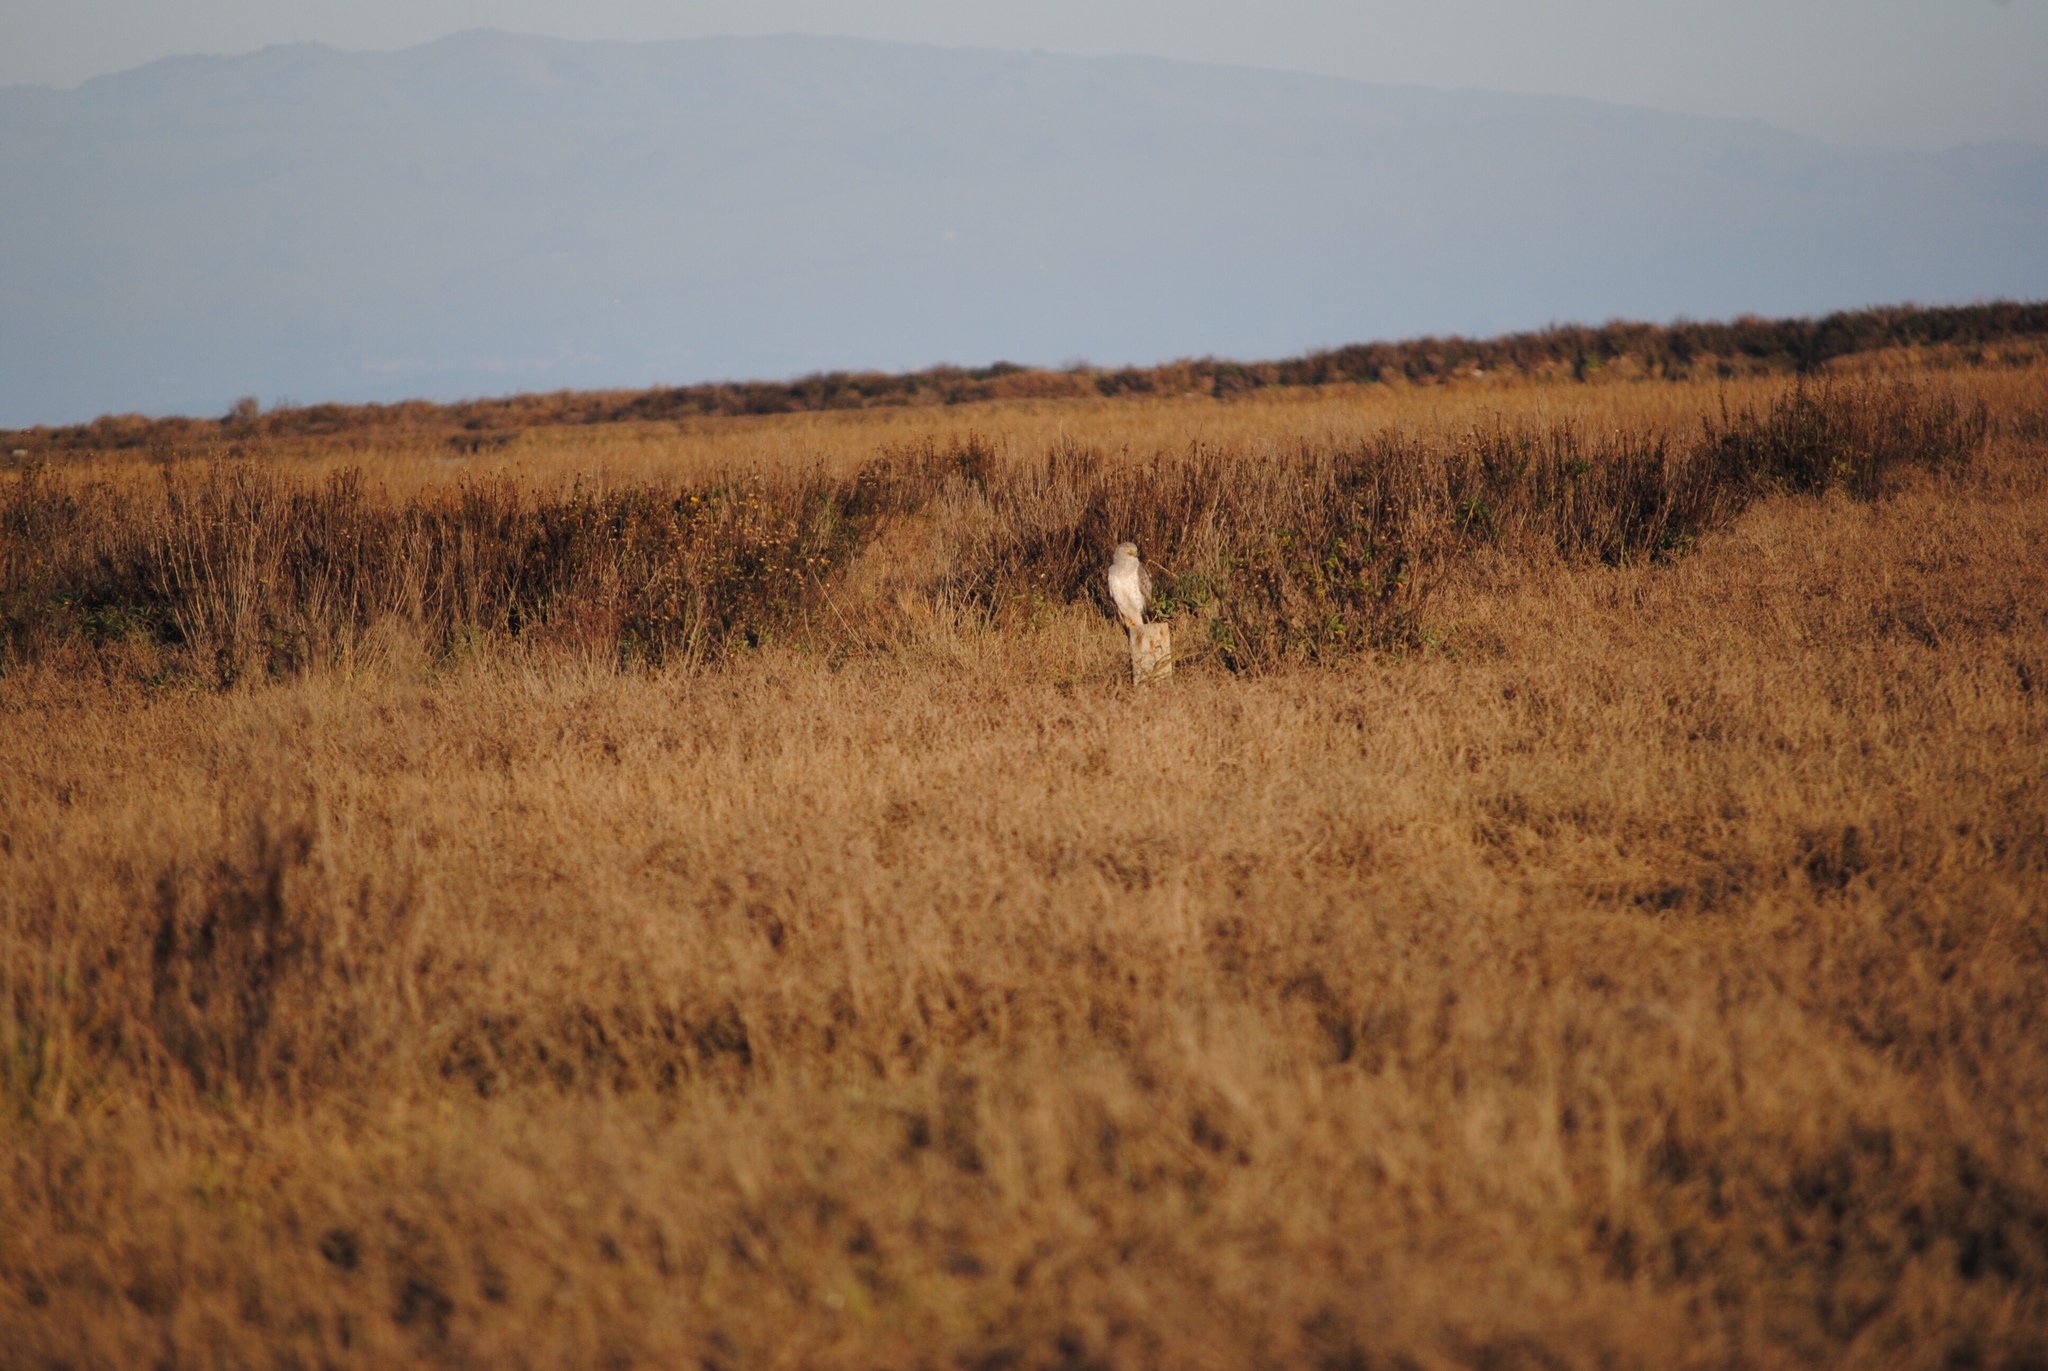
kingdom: Animalia
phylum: Chordata
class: Aves
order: Accipitriformes
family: Accipitridae
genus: Circus
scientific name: Circus cyaneus
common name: Hen harrier
